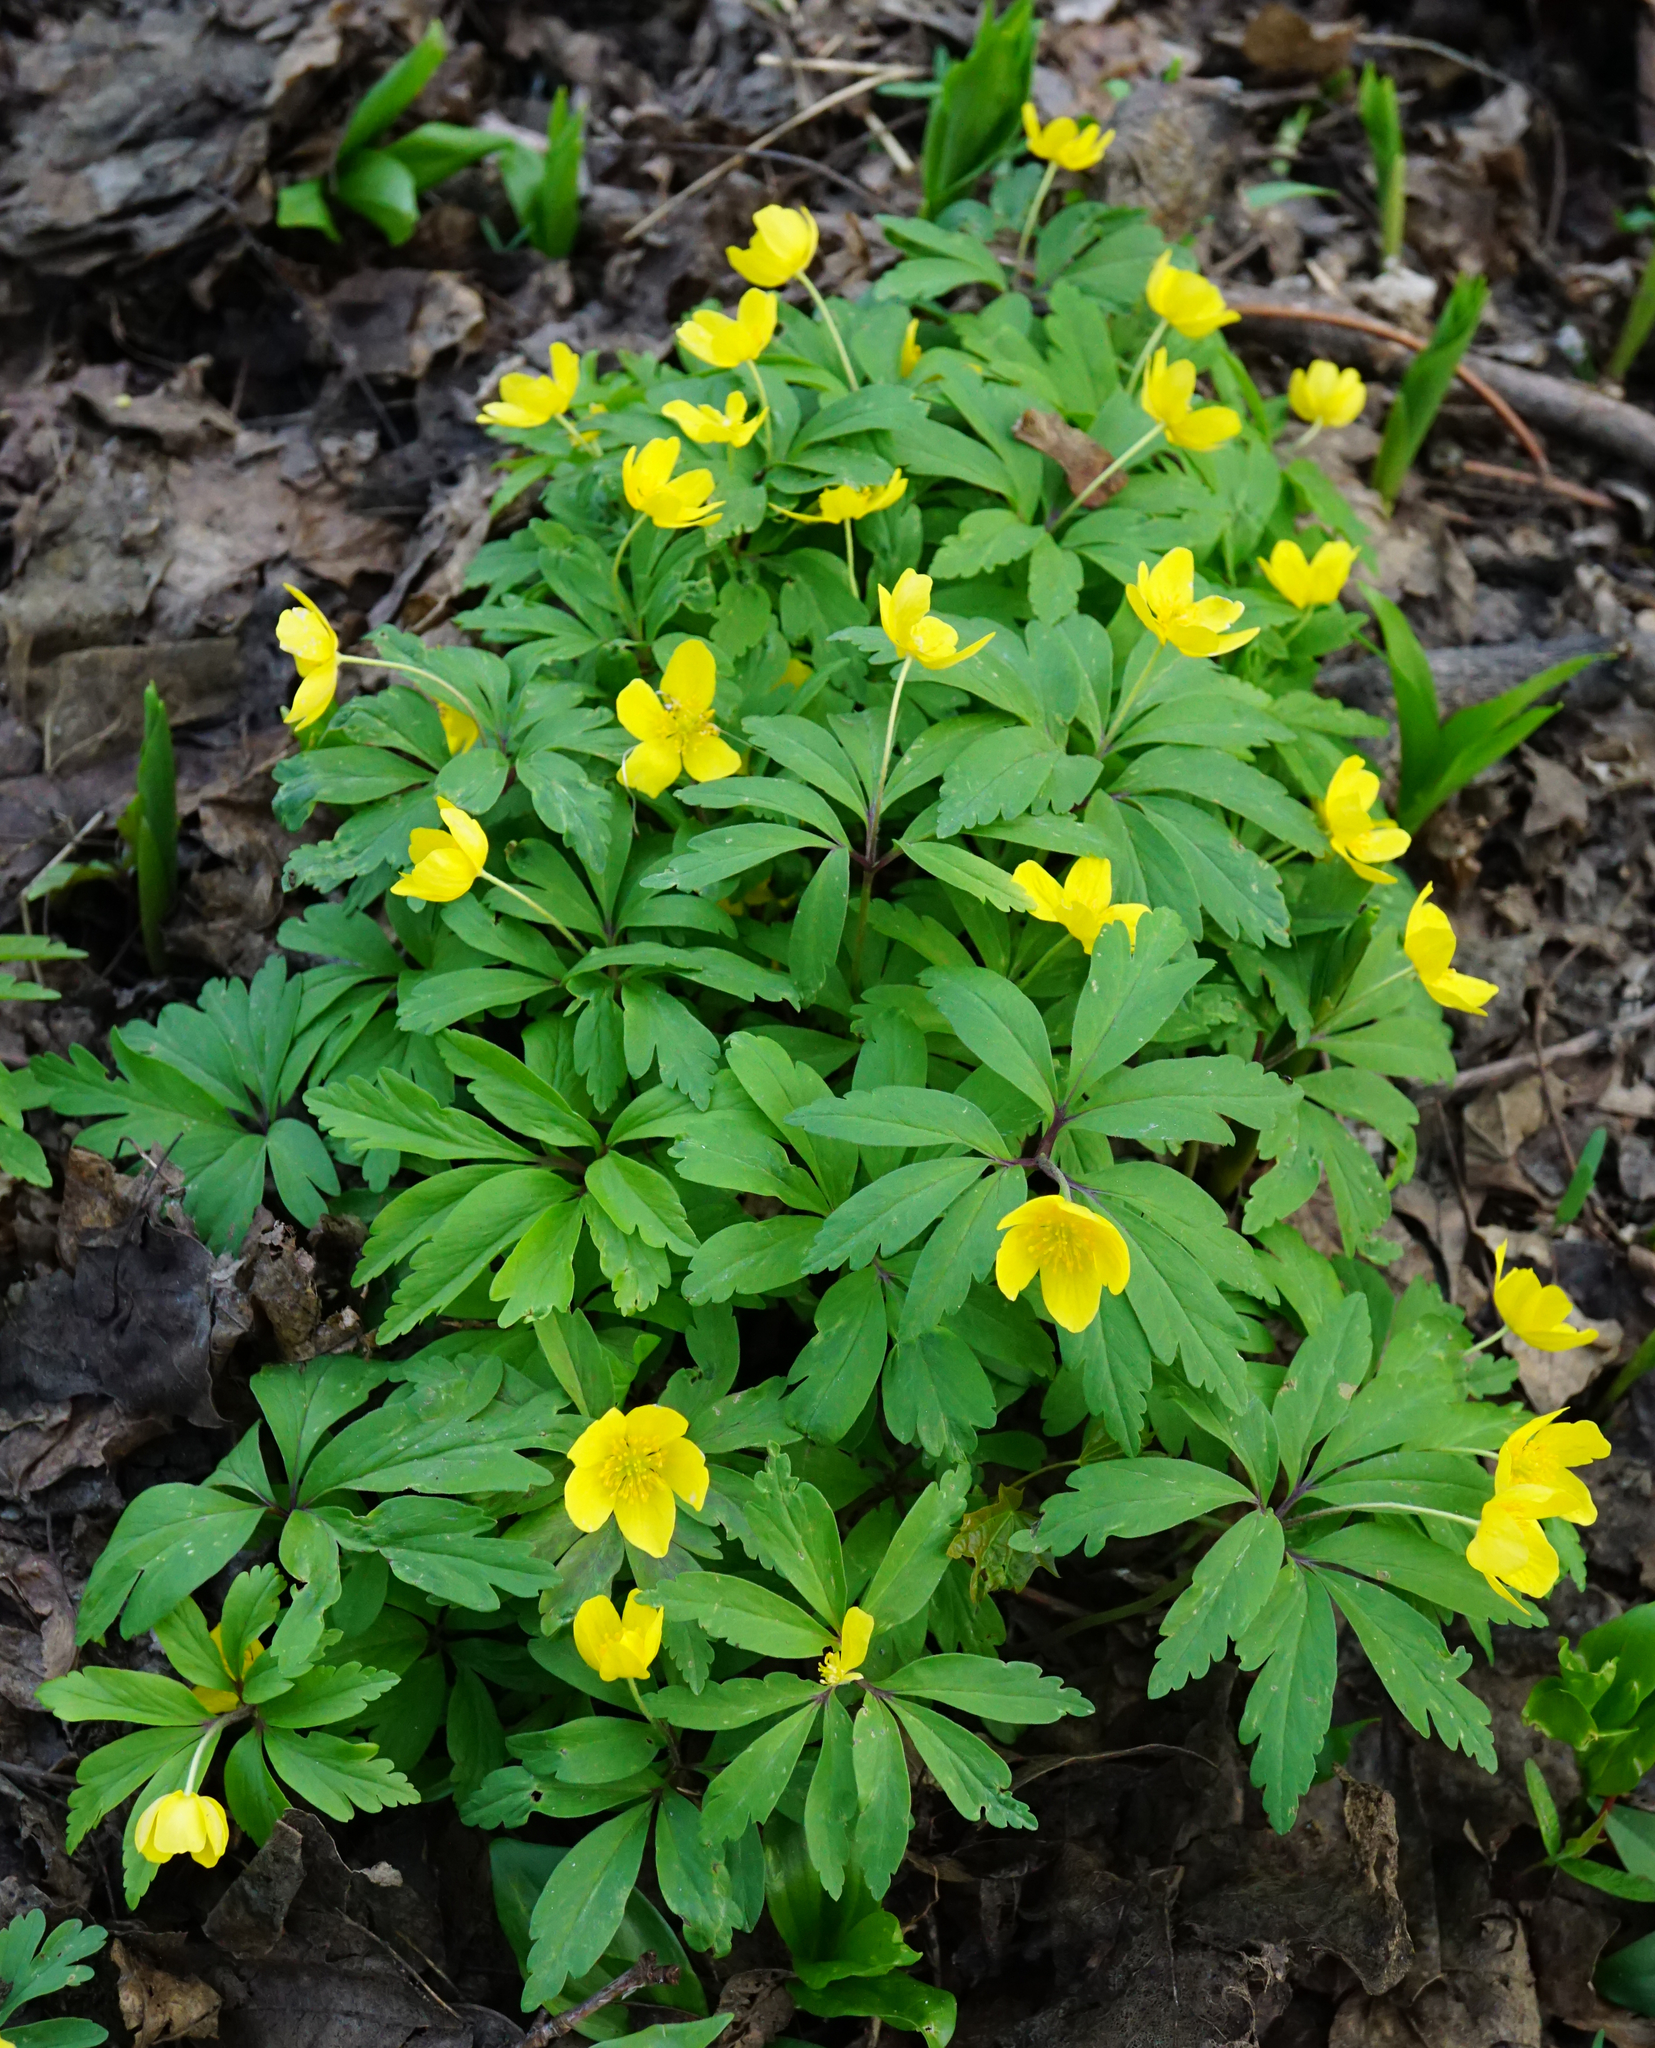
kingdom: Plantae
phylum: Tracheophyta
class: Magnoliopsida
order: Ranunculales
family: Ranunculaceae
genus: Anemone
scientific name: Anemone ranunculoides
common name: Yellow anemone
